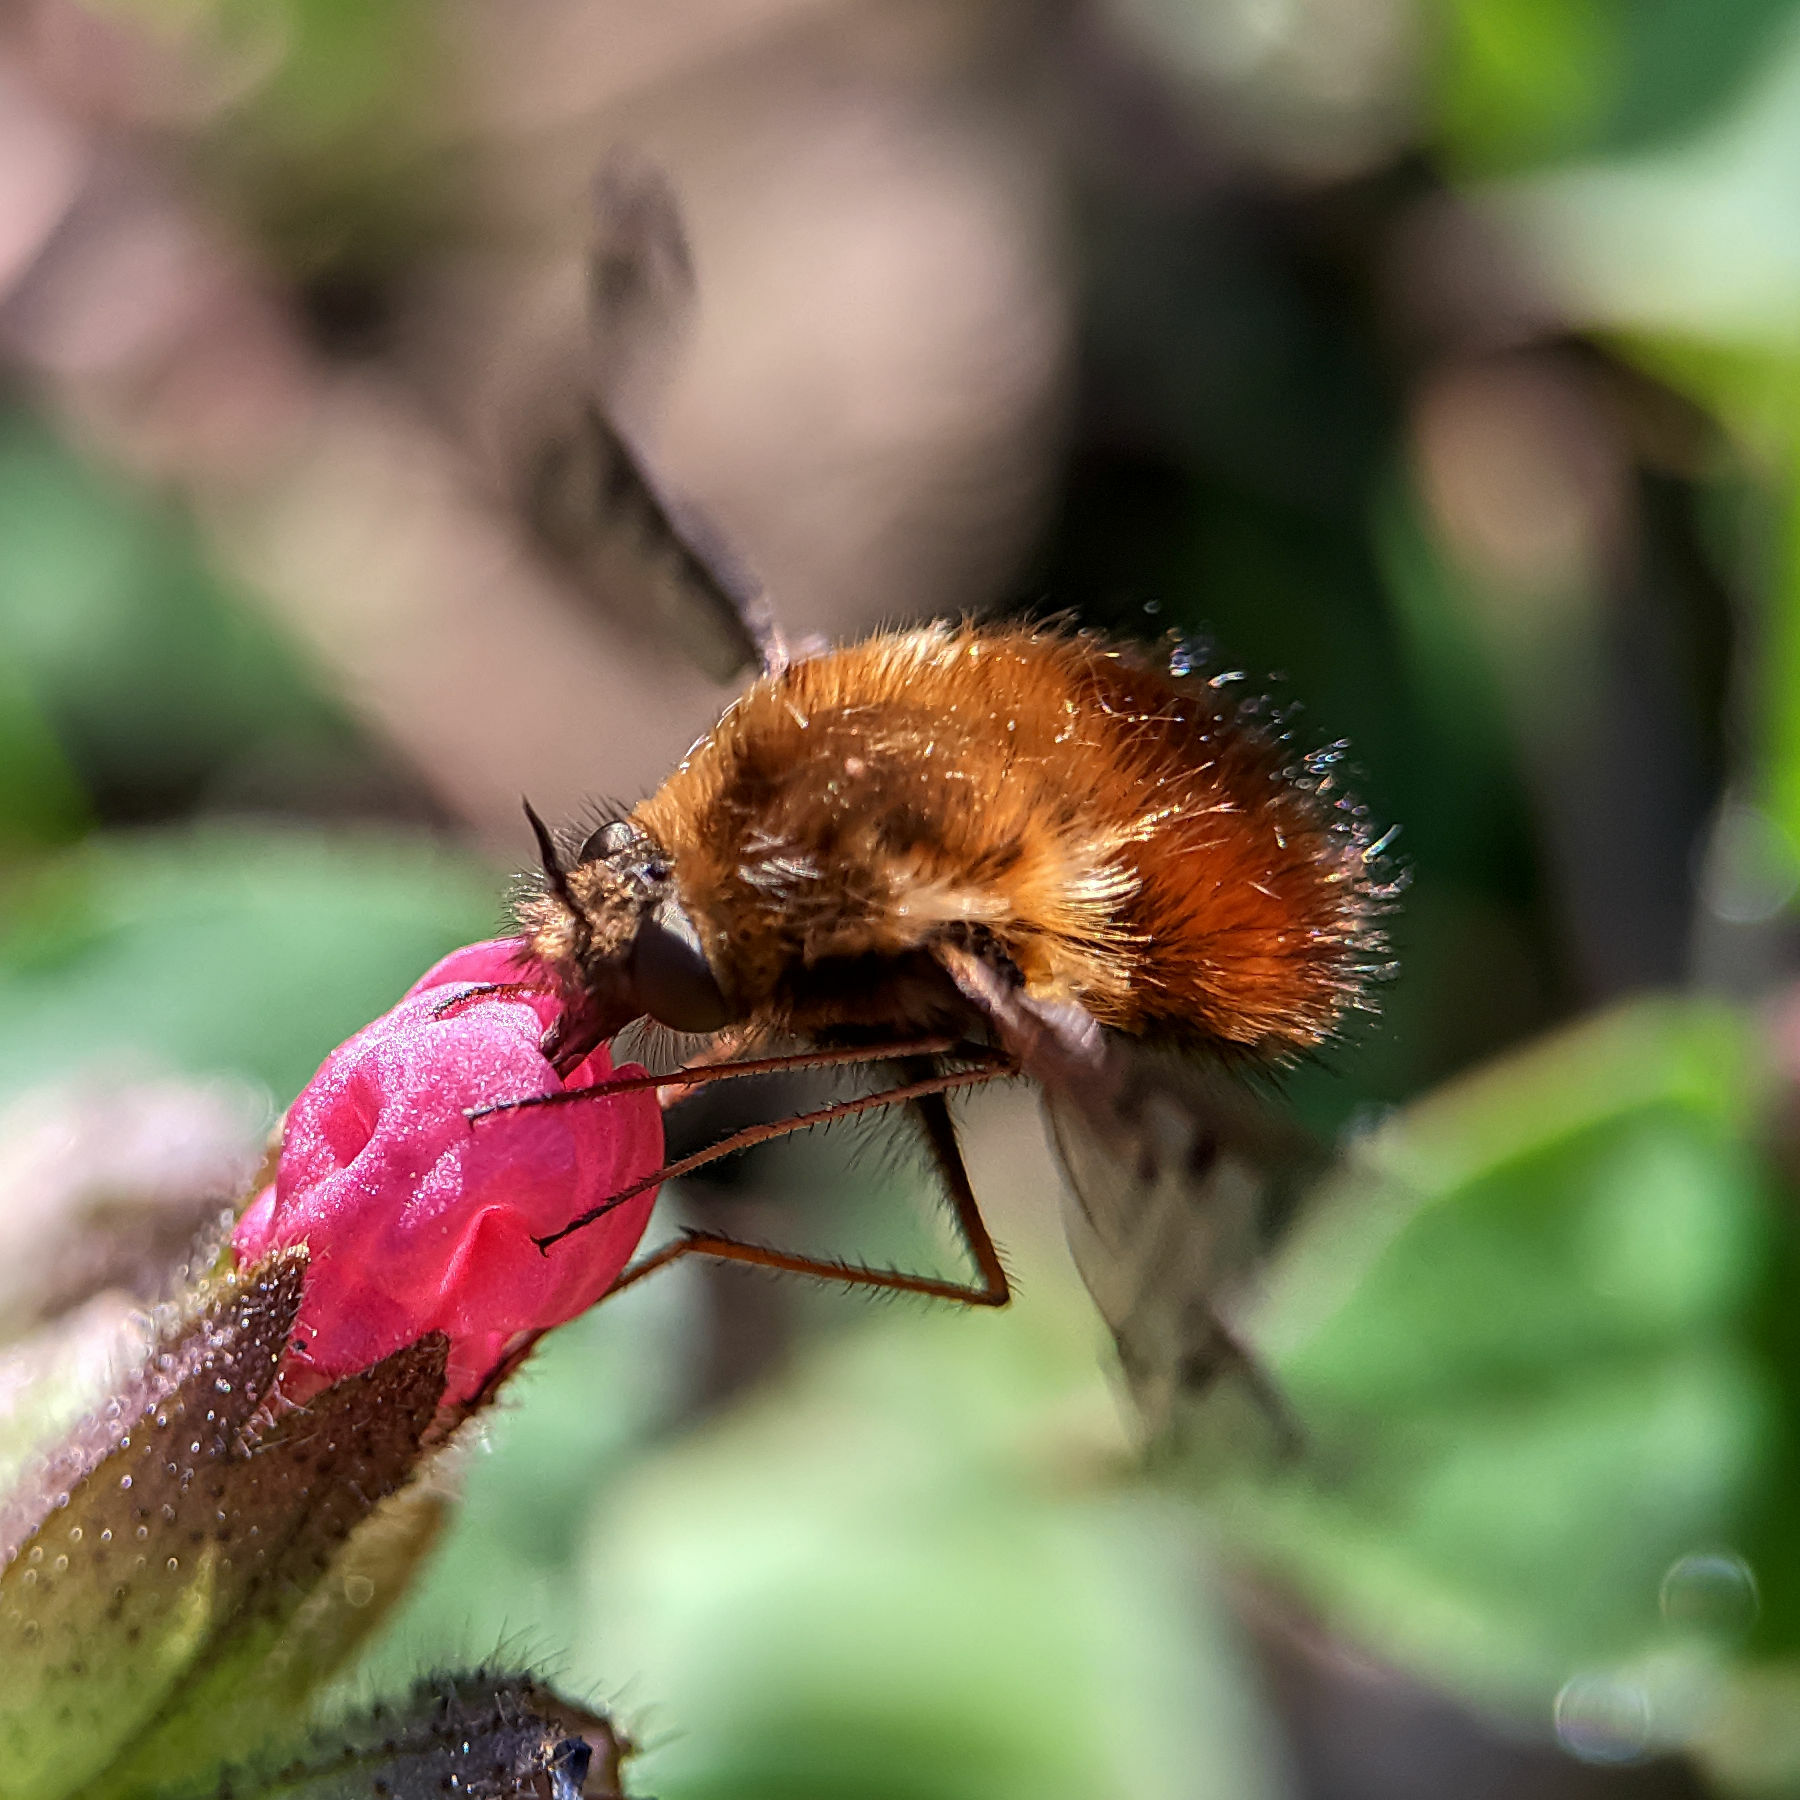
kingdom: Animalia
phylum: Arthropoda
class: Insecta
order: Diptera
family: Bombyliidae
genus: Bombylius
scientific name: Bombylius discolor
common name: Dotted bee-fly
